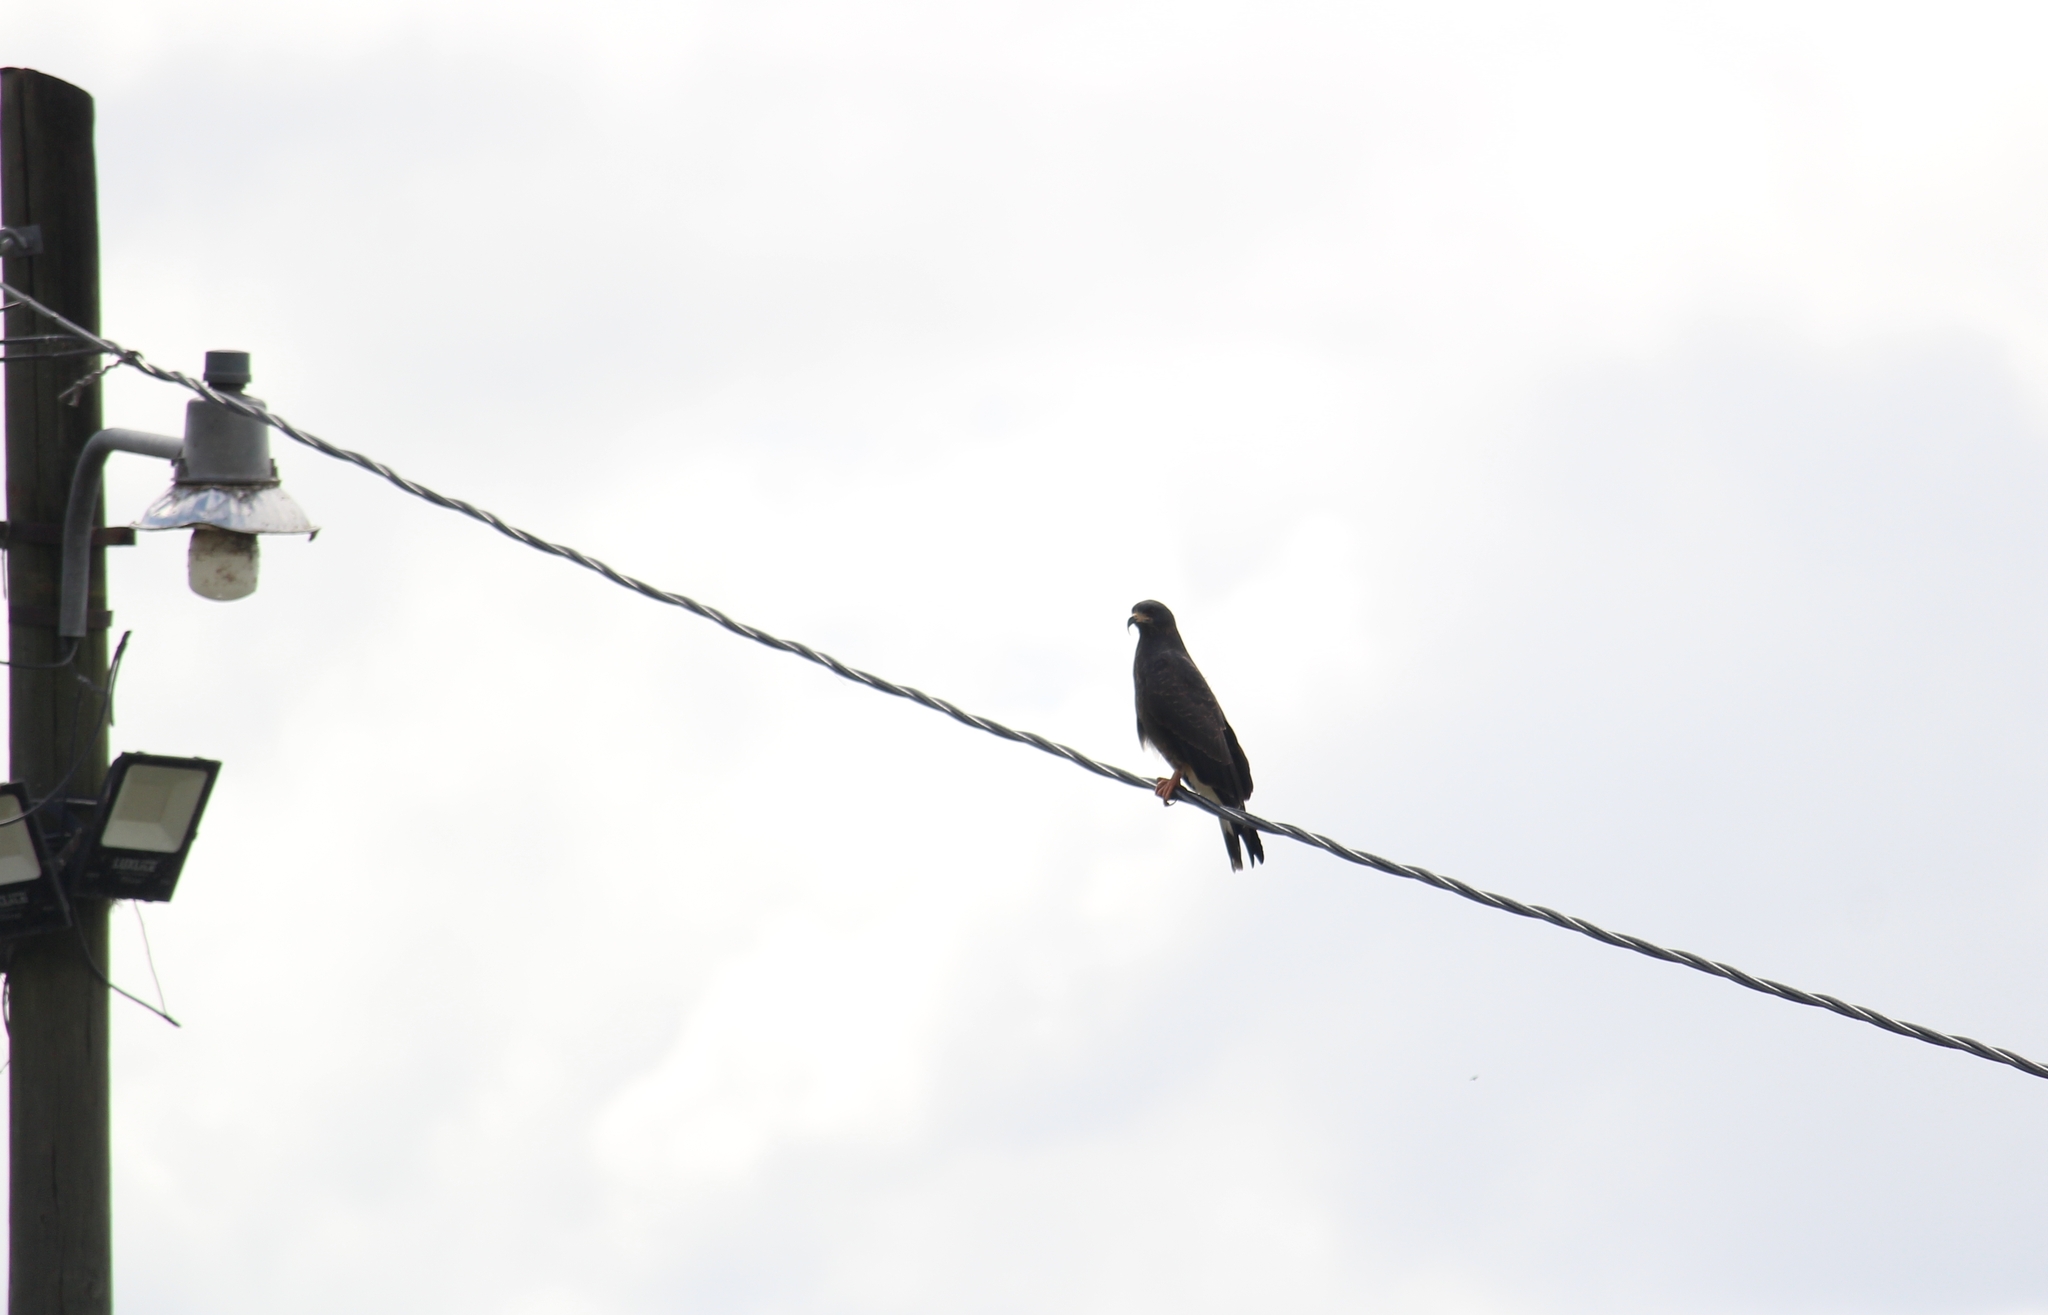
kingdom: Animalia
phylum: Chordata
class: Aves
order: Accipitriformes
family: Accipitridae
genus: Rostrhamus
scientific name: Rostrhamus sociabilis
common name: Snail kite
